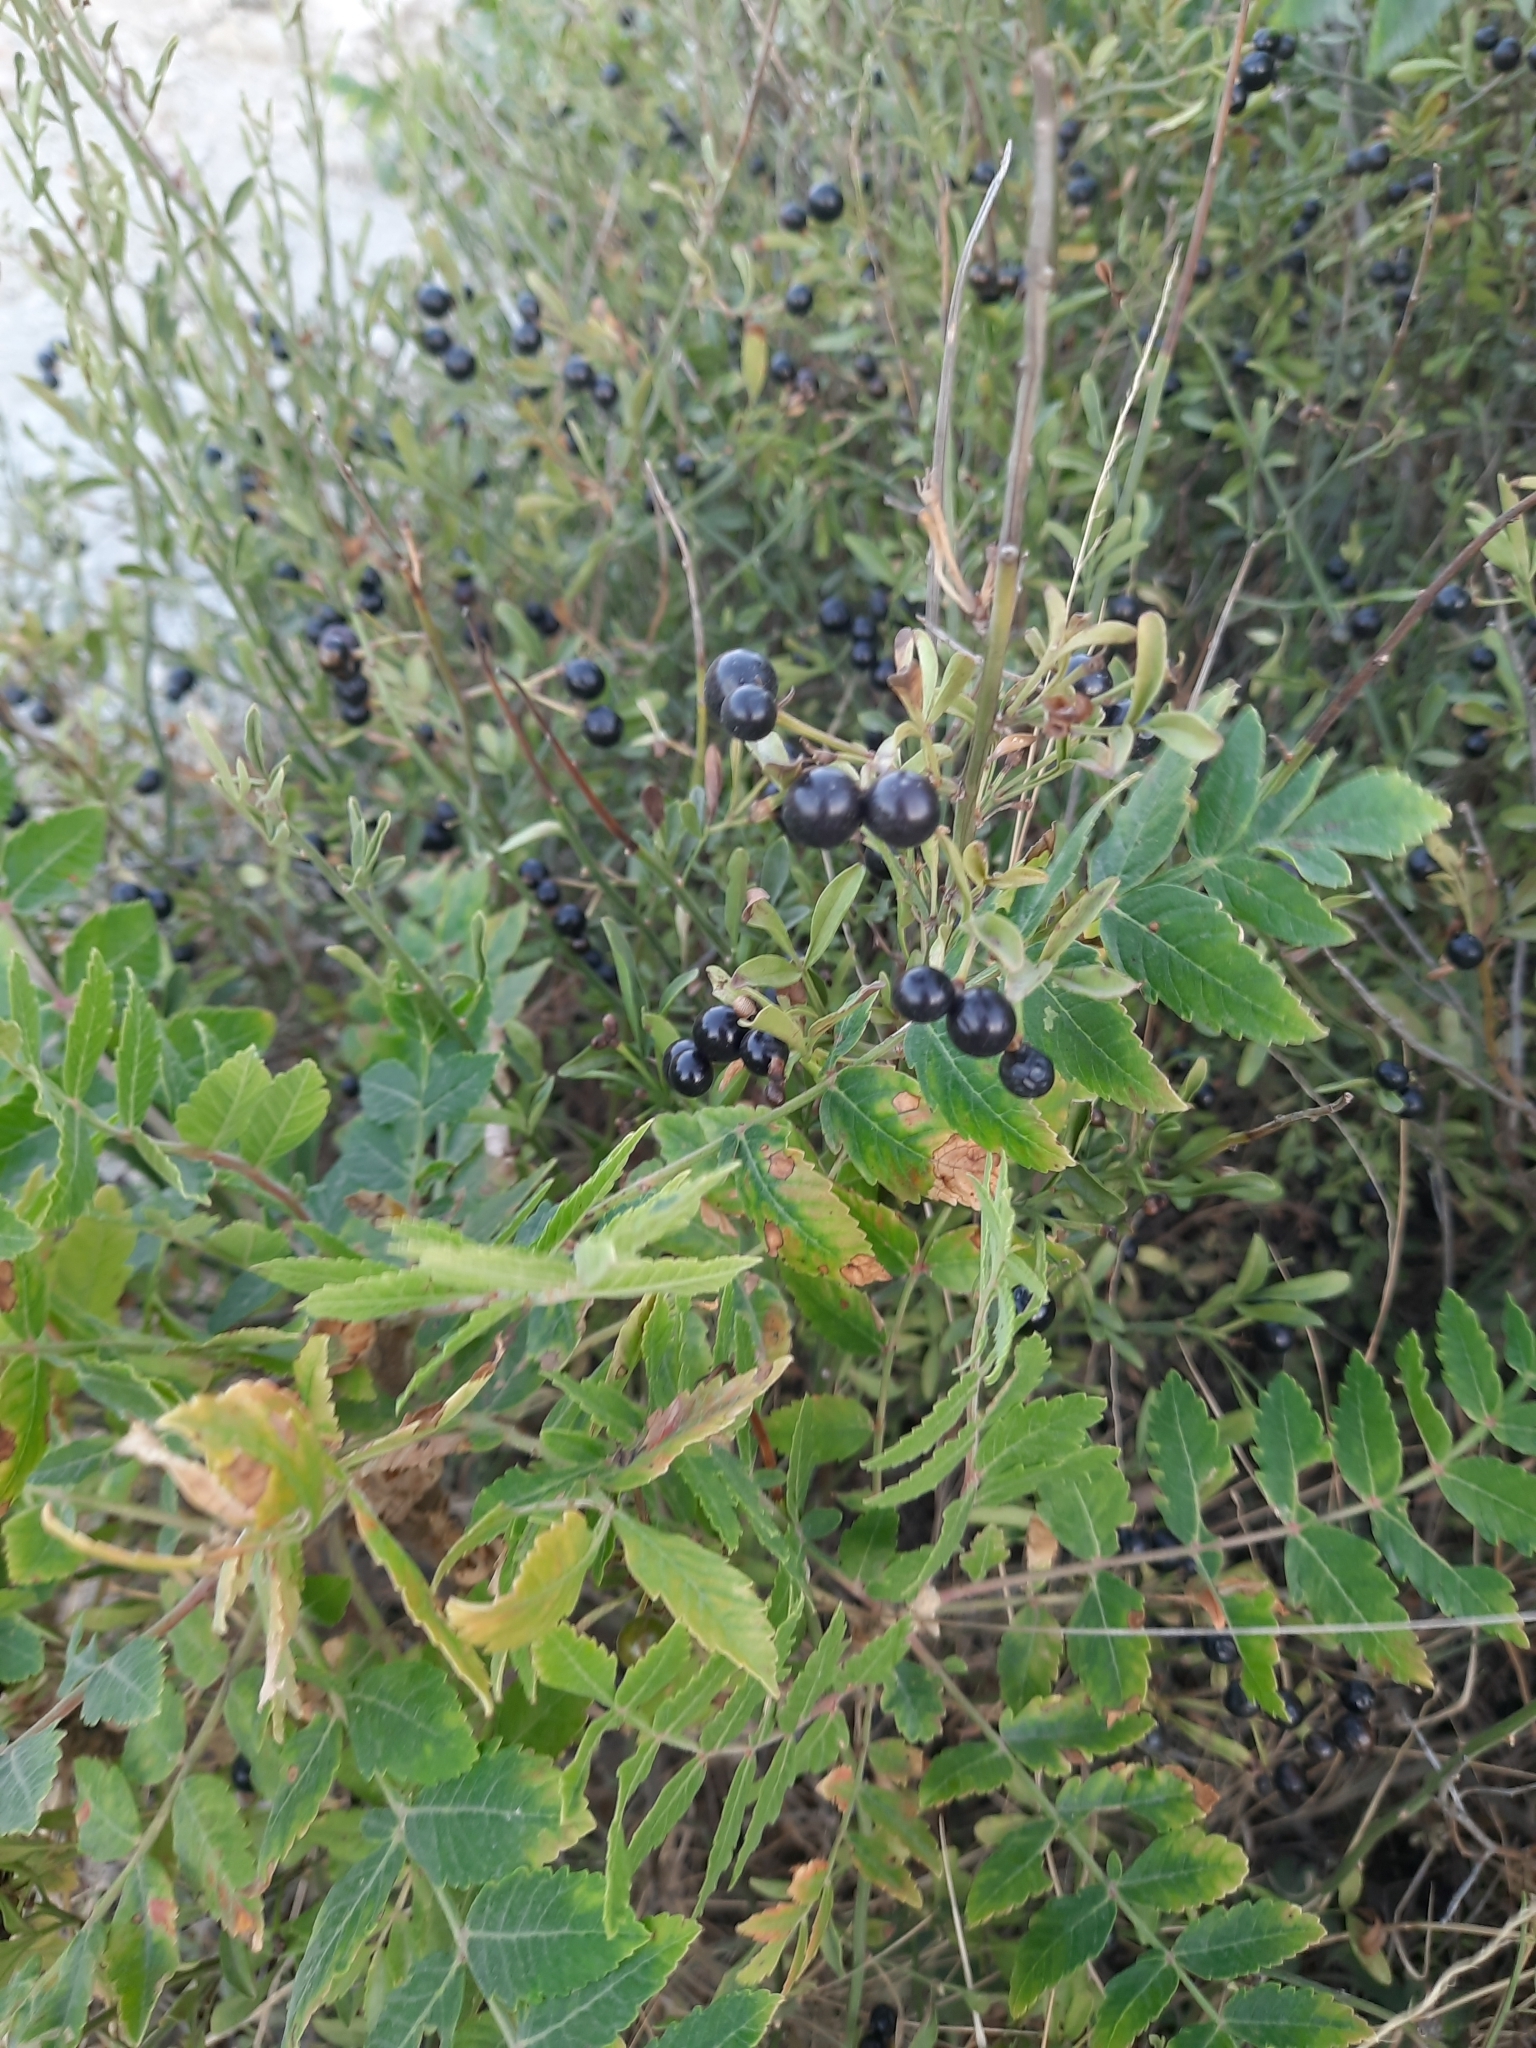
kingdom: Plantae
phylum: Tracheophyta
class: Magnoliopsida
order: Lamiales
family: Oleaceae
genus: Chrysojasminum
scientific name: Chrysojasminum fruticans
